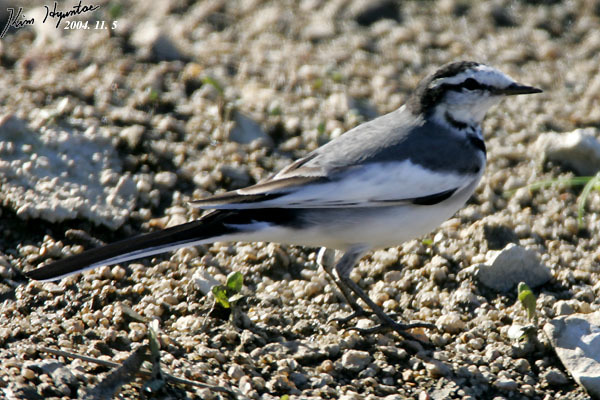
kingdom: Animalia
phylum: Chordata
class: Aves
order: Passeriformes
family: Motacillidae
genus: Motacilla
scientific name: Motacilla alba
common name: White wagtail
